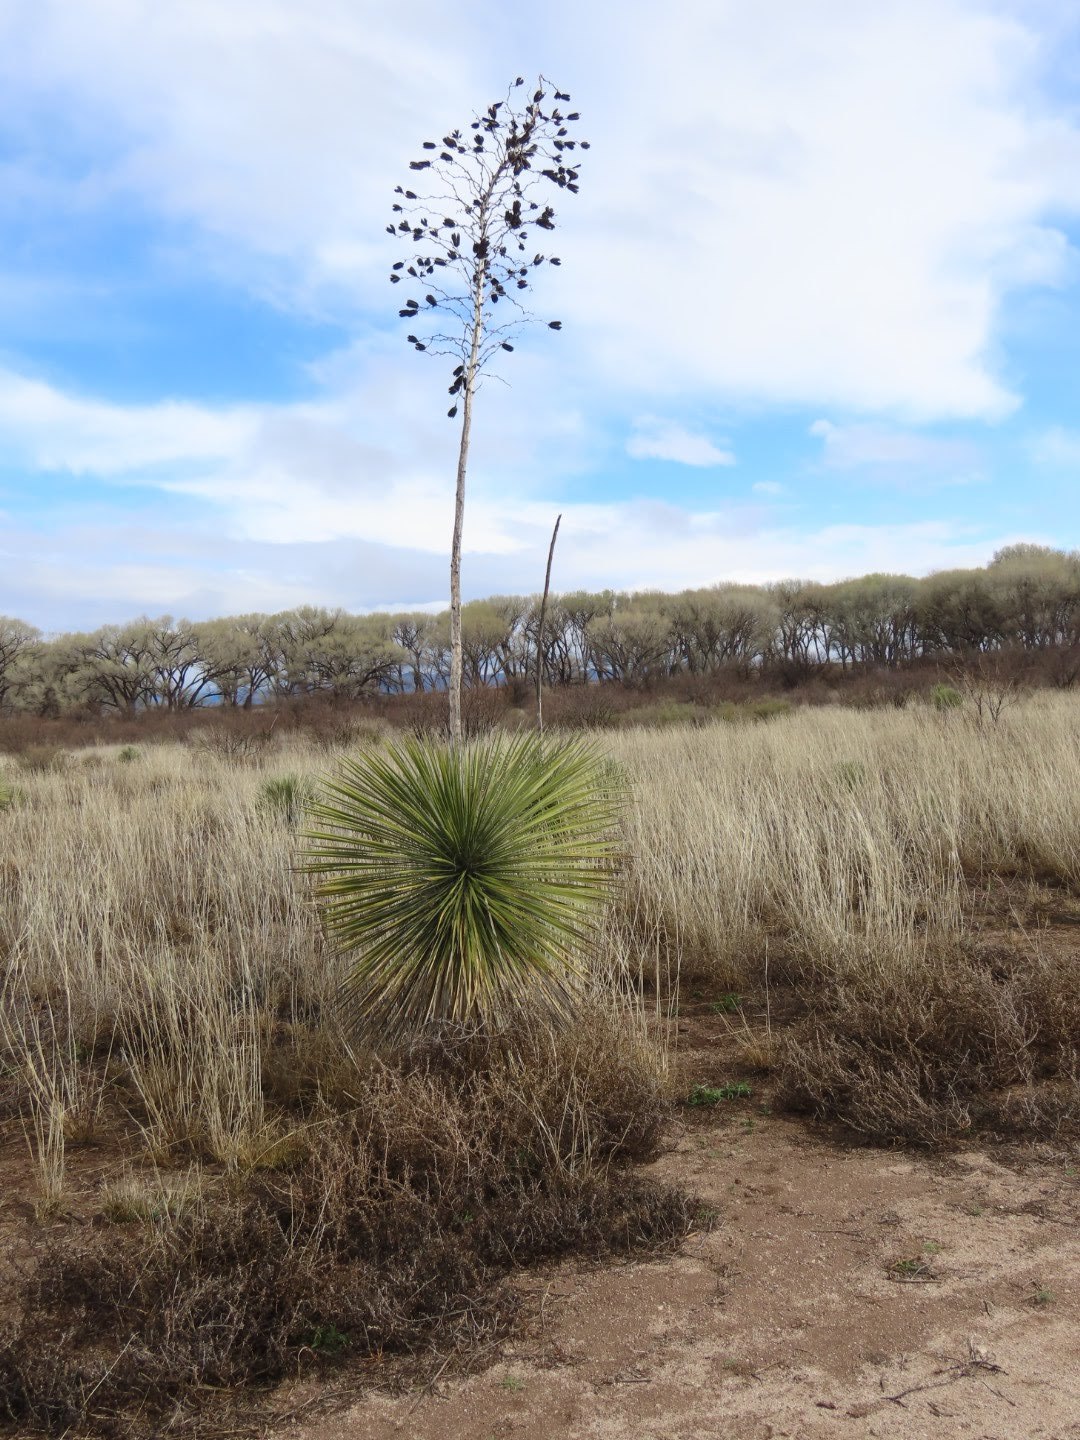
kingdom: Plantae
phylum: Tracheophyta
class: Liliopsida
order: Asparagales
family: Asparagaceae
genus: Yucca
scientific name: Yucca elata
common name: Palmella
